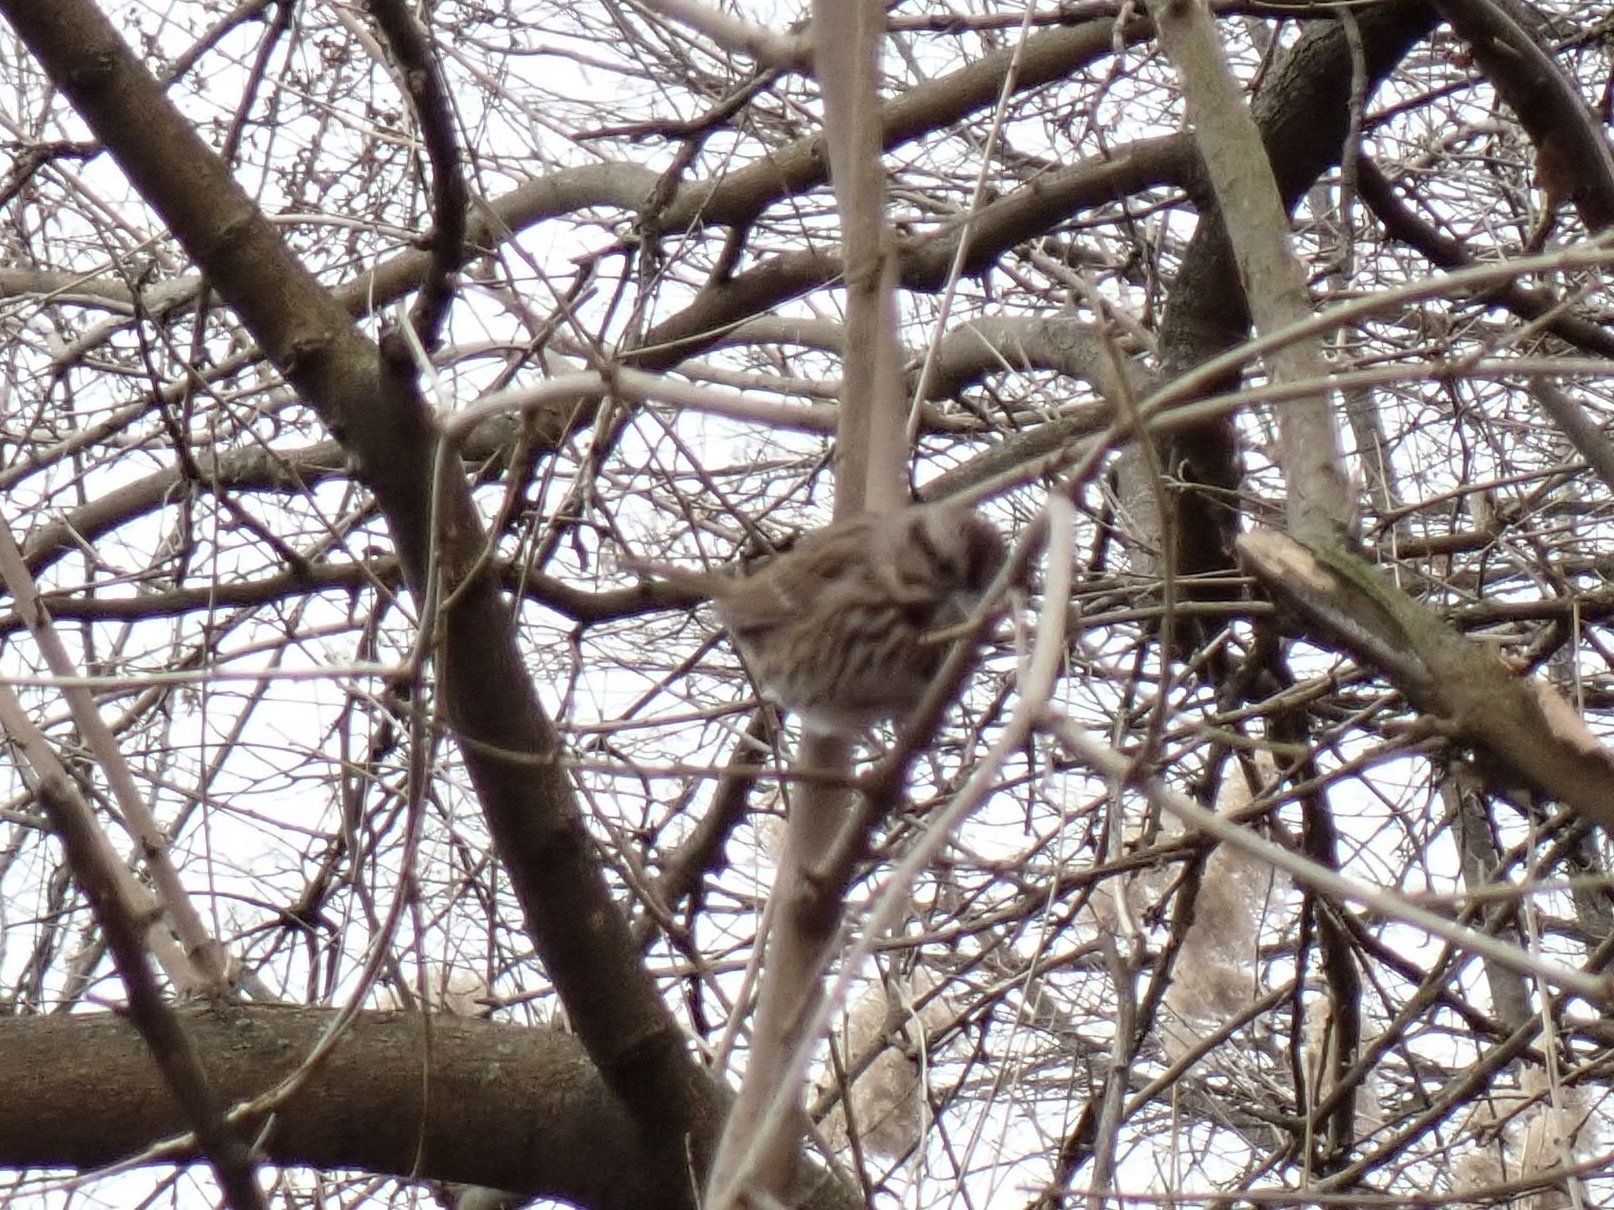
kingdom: Animalia
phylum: Chordata
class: Aves
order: Passeriformes
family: Passerellidae
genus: Melospiza
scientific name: Melospiza melodia
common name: Song sparrow
